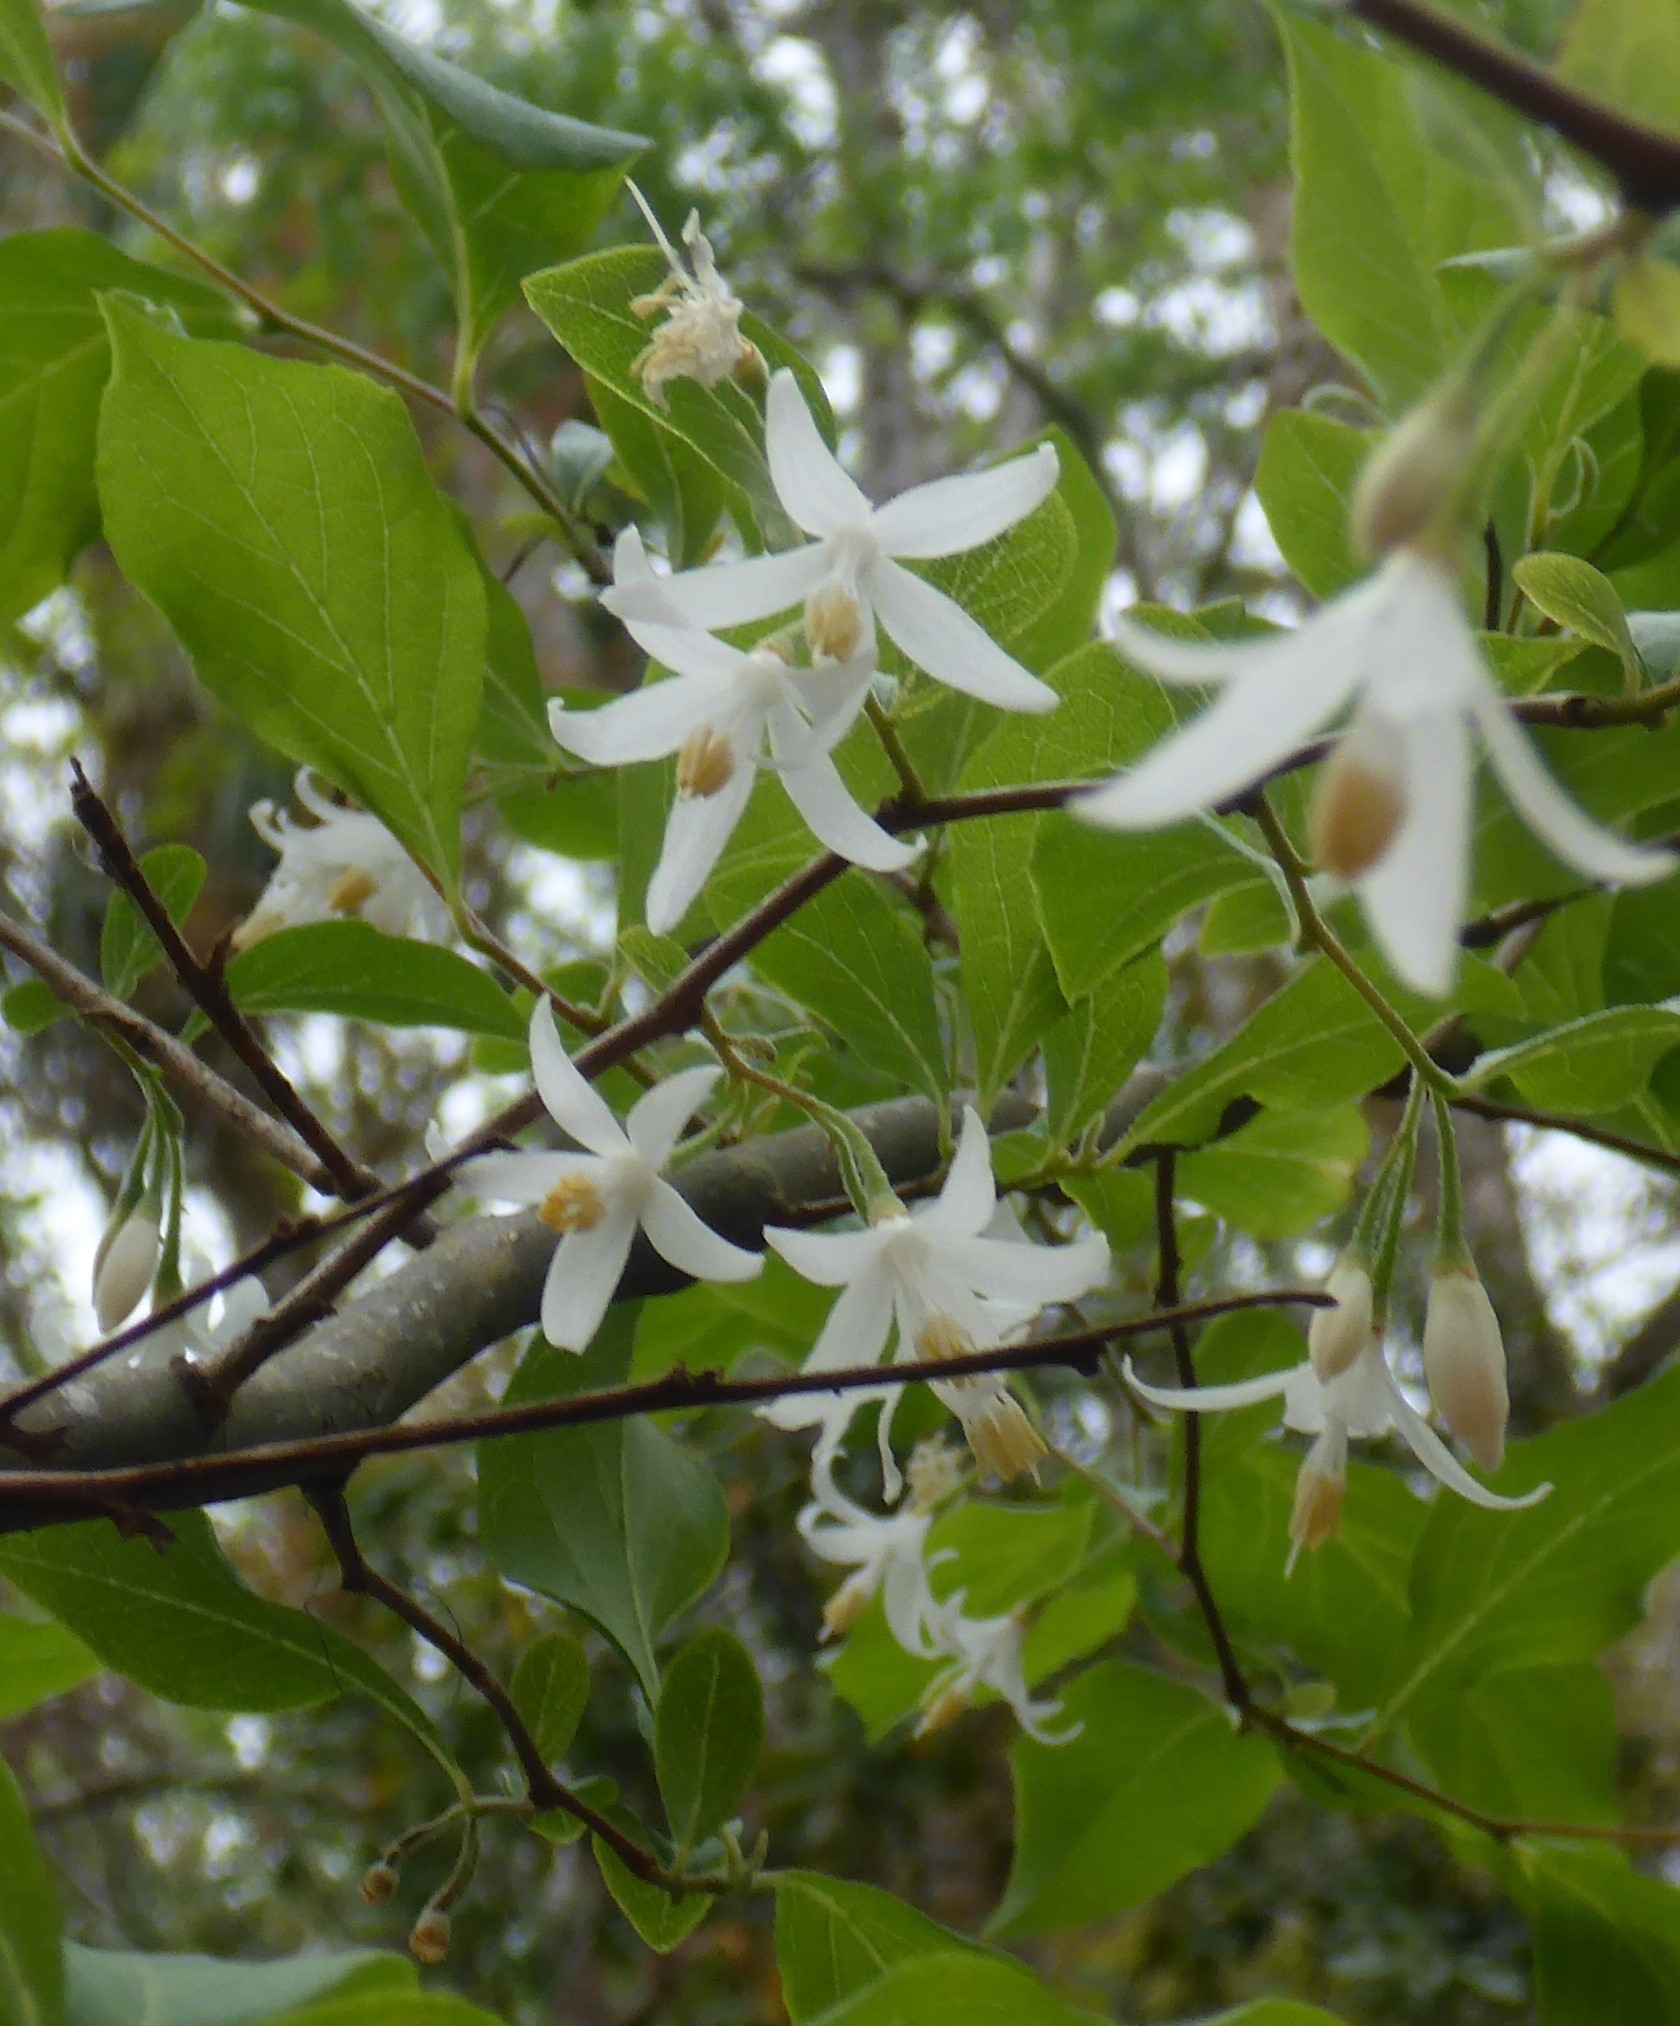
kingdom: Plantae
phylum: Tracheophyta
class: Magnoliopsida
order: Ericales
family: Styracaceae
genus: Styrax
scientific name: Styrax americanus
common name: American snowbell
